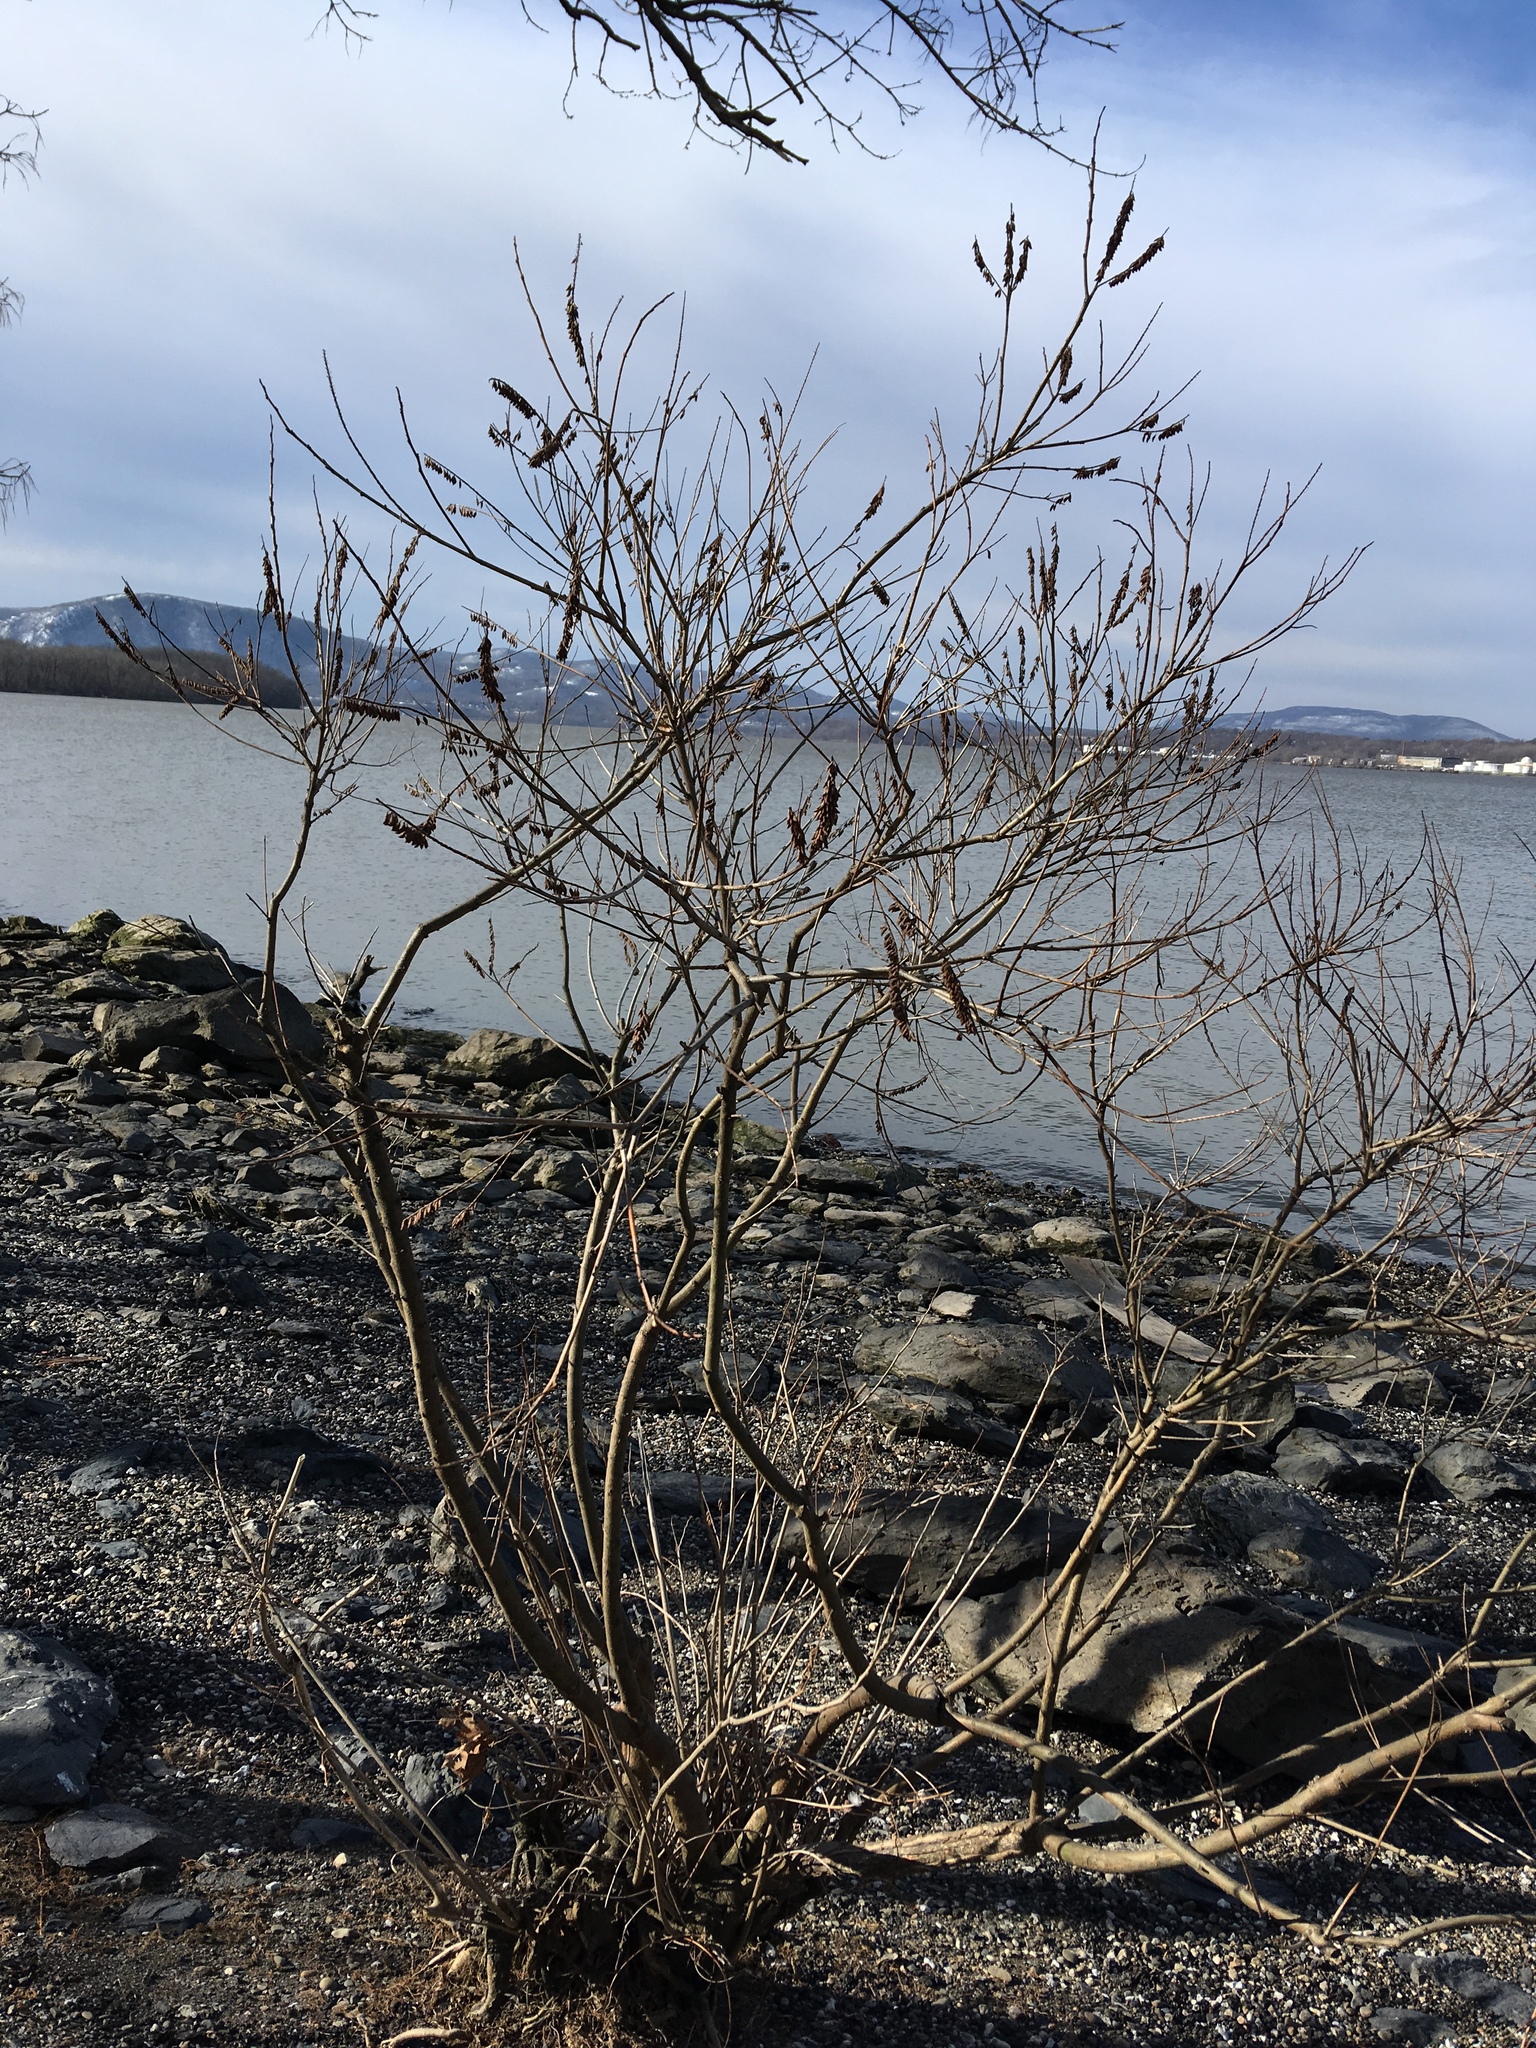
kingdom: Plantae
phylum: Tracheophyta
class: Magnoliopsida
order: Fabales
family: Fabaceae
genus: Amorpha
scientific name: Amorpha fruticosa
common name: False indigo
